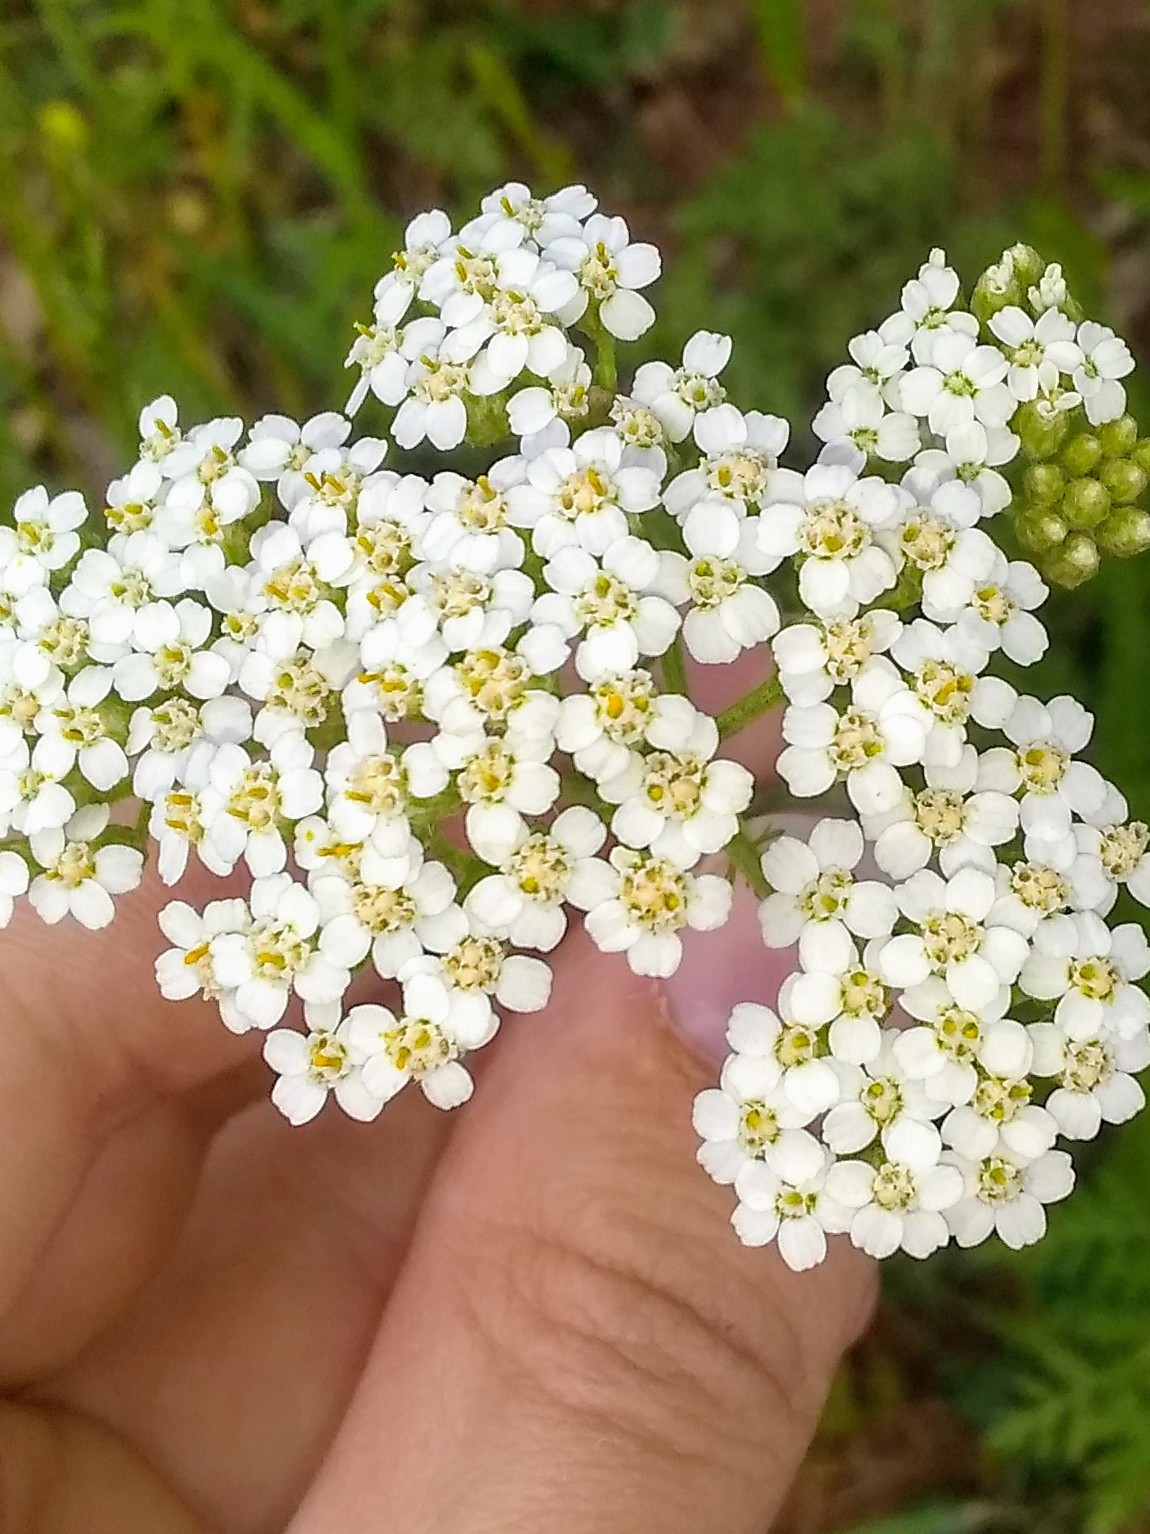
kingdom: Plantae
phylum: Tracheophyta
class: Magnoliopsida
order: Asterales
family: Asteraceae
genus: Achillea
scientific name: Achillea millefolium
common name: Yarrow
